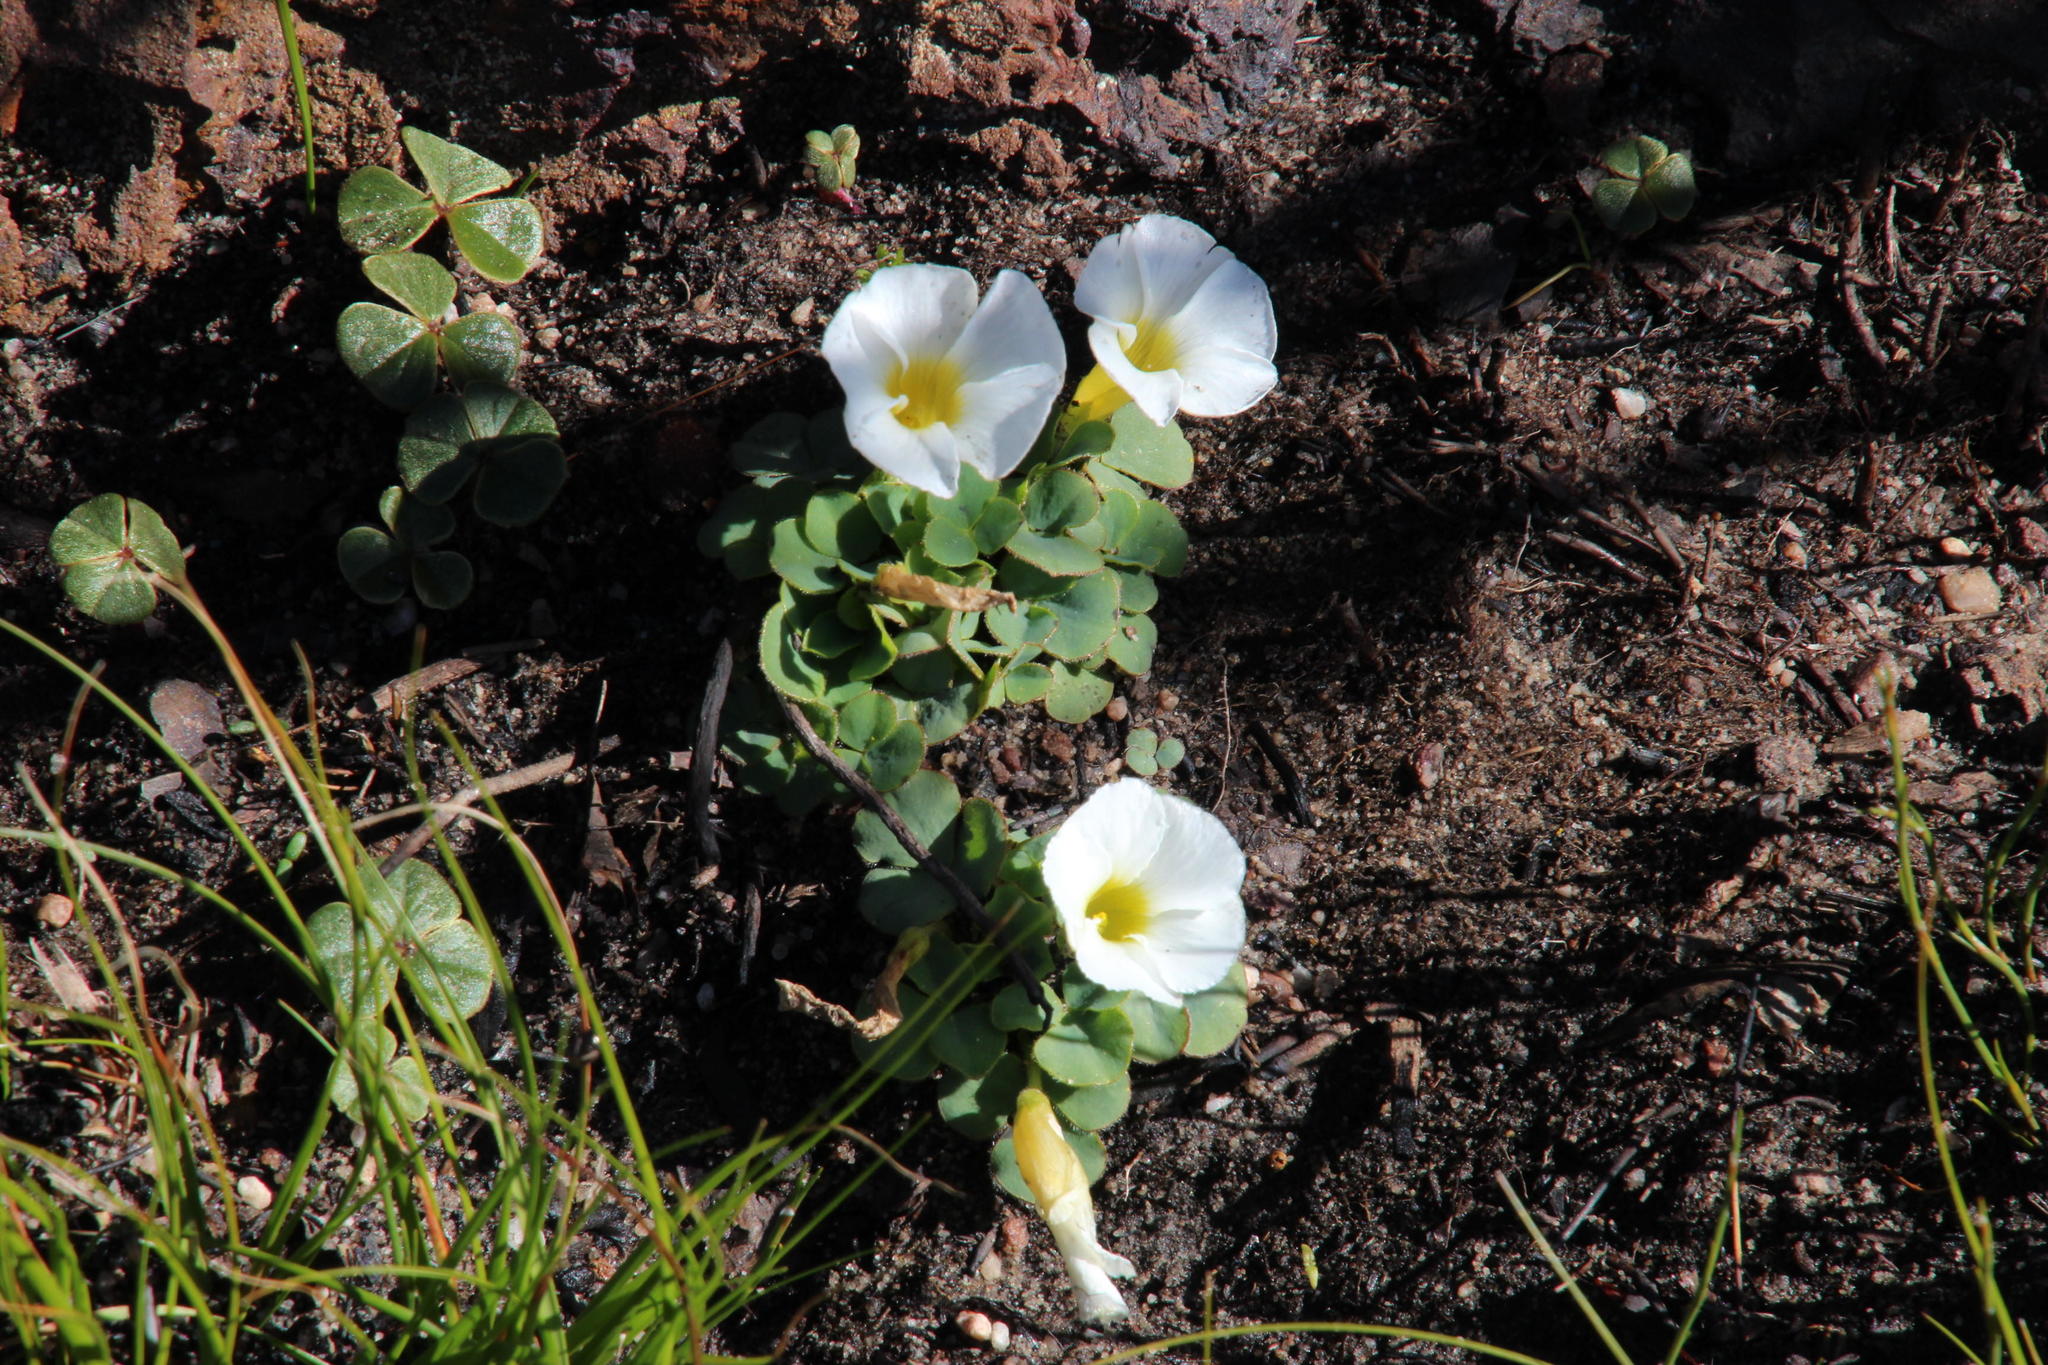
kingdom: Plantae
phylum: Tracheophyta
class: Magnoliopsida
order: Oxalidales
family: Oxalidaceae
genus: Oxalis
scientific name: Oxalis purpurea
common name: Purple woodsorrel
